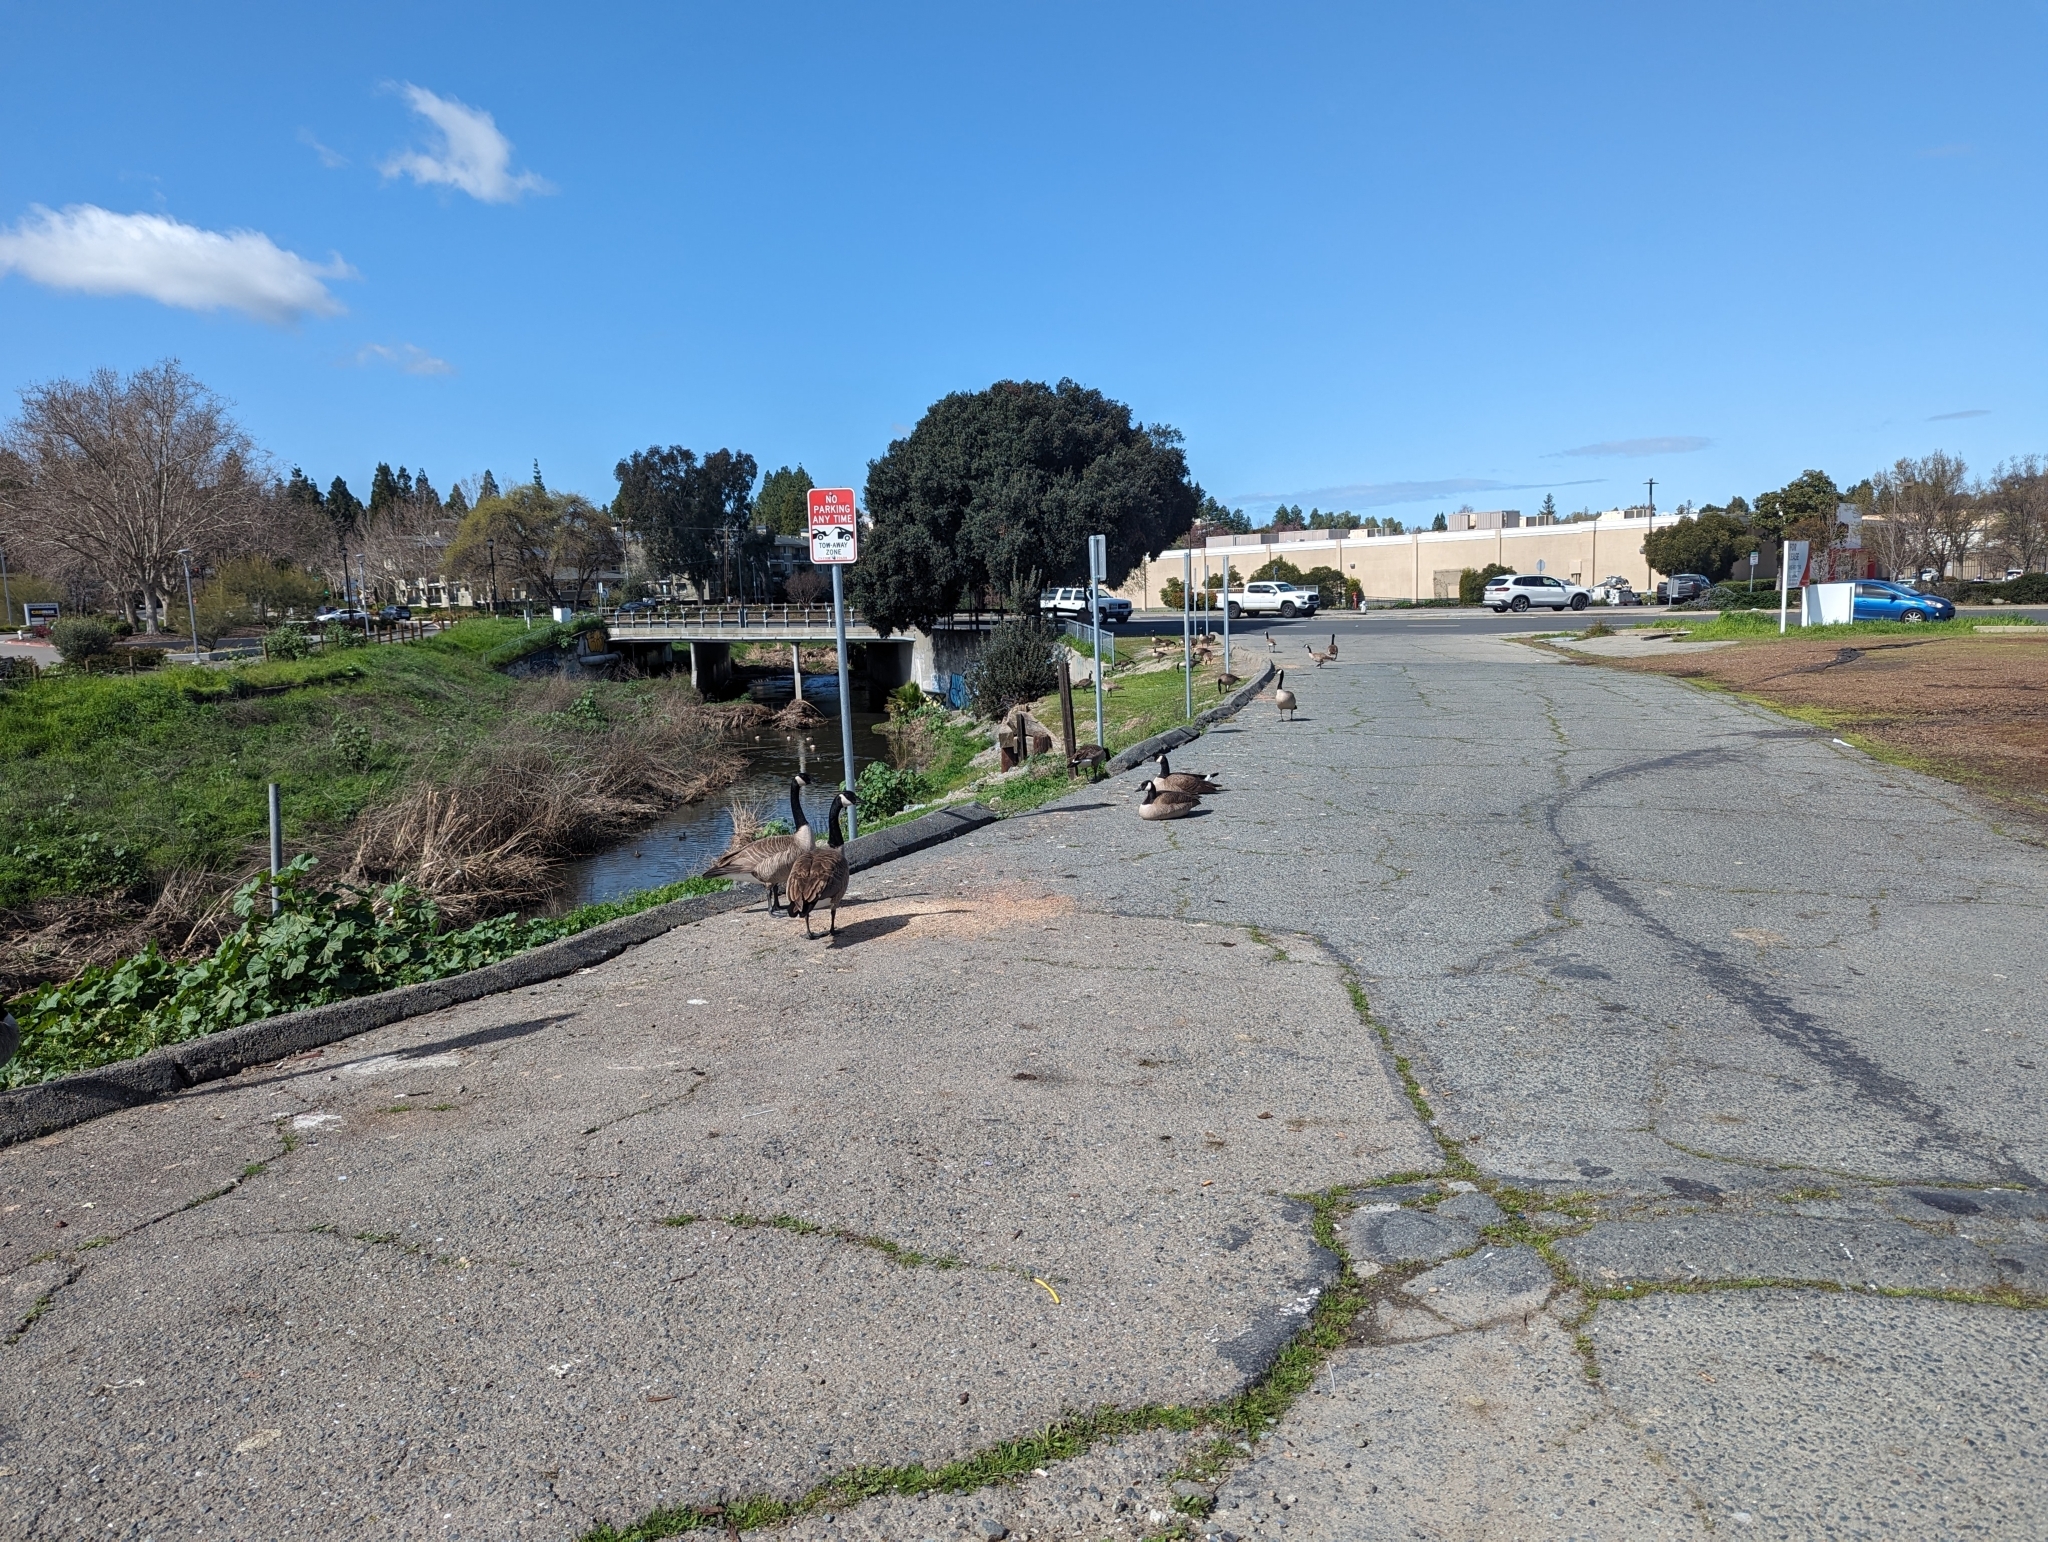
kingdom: Animalia
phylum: Chordata
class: Aves
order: Anseriformes
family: Anatidae
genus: Branta
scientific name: Branta canadensis
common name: Canada goose
